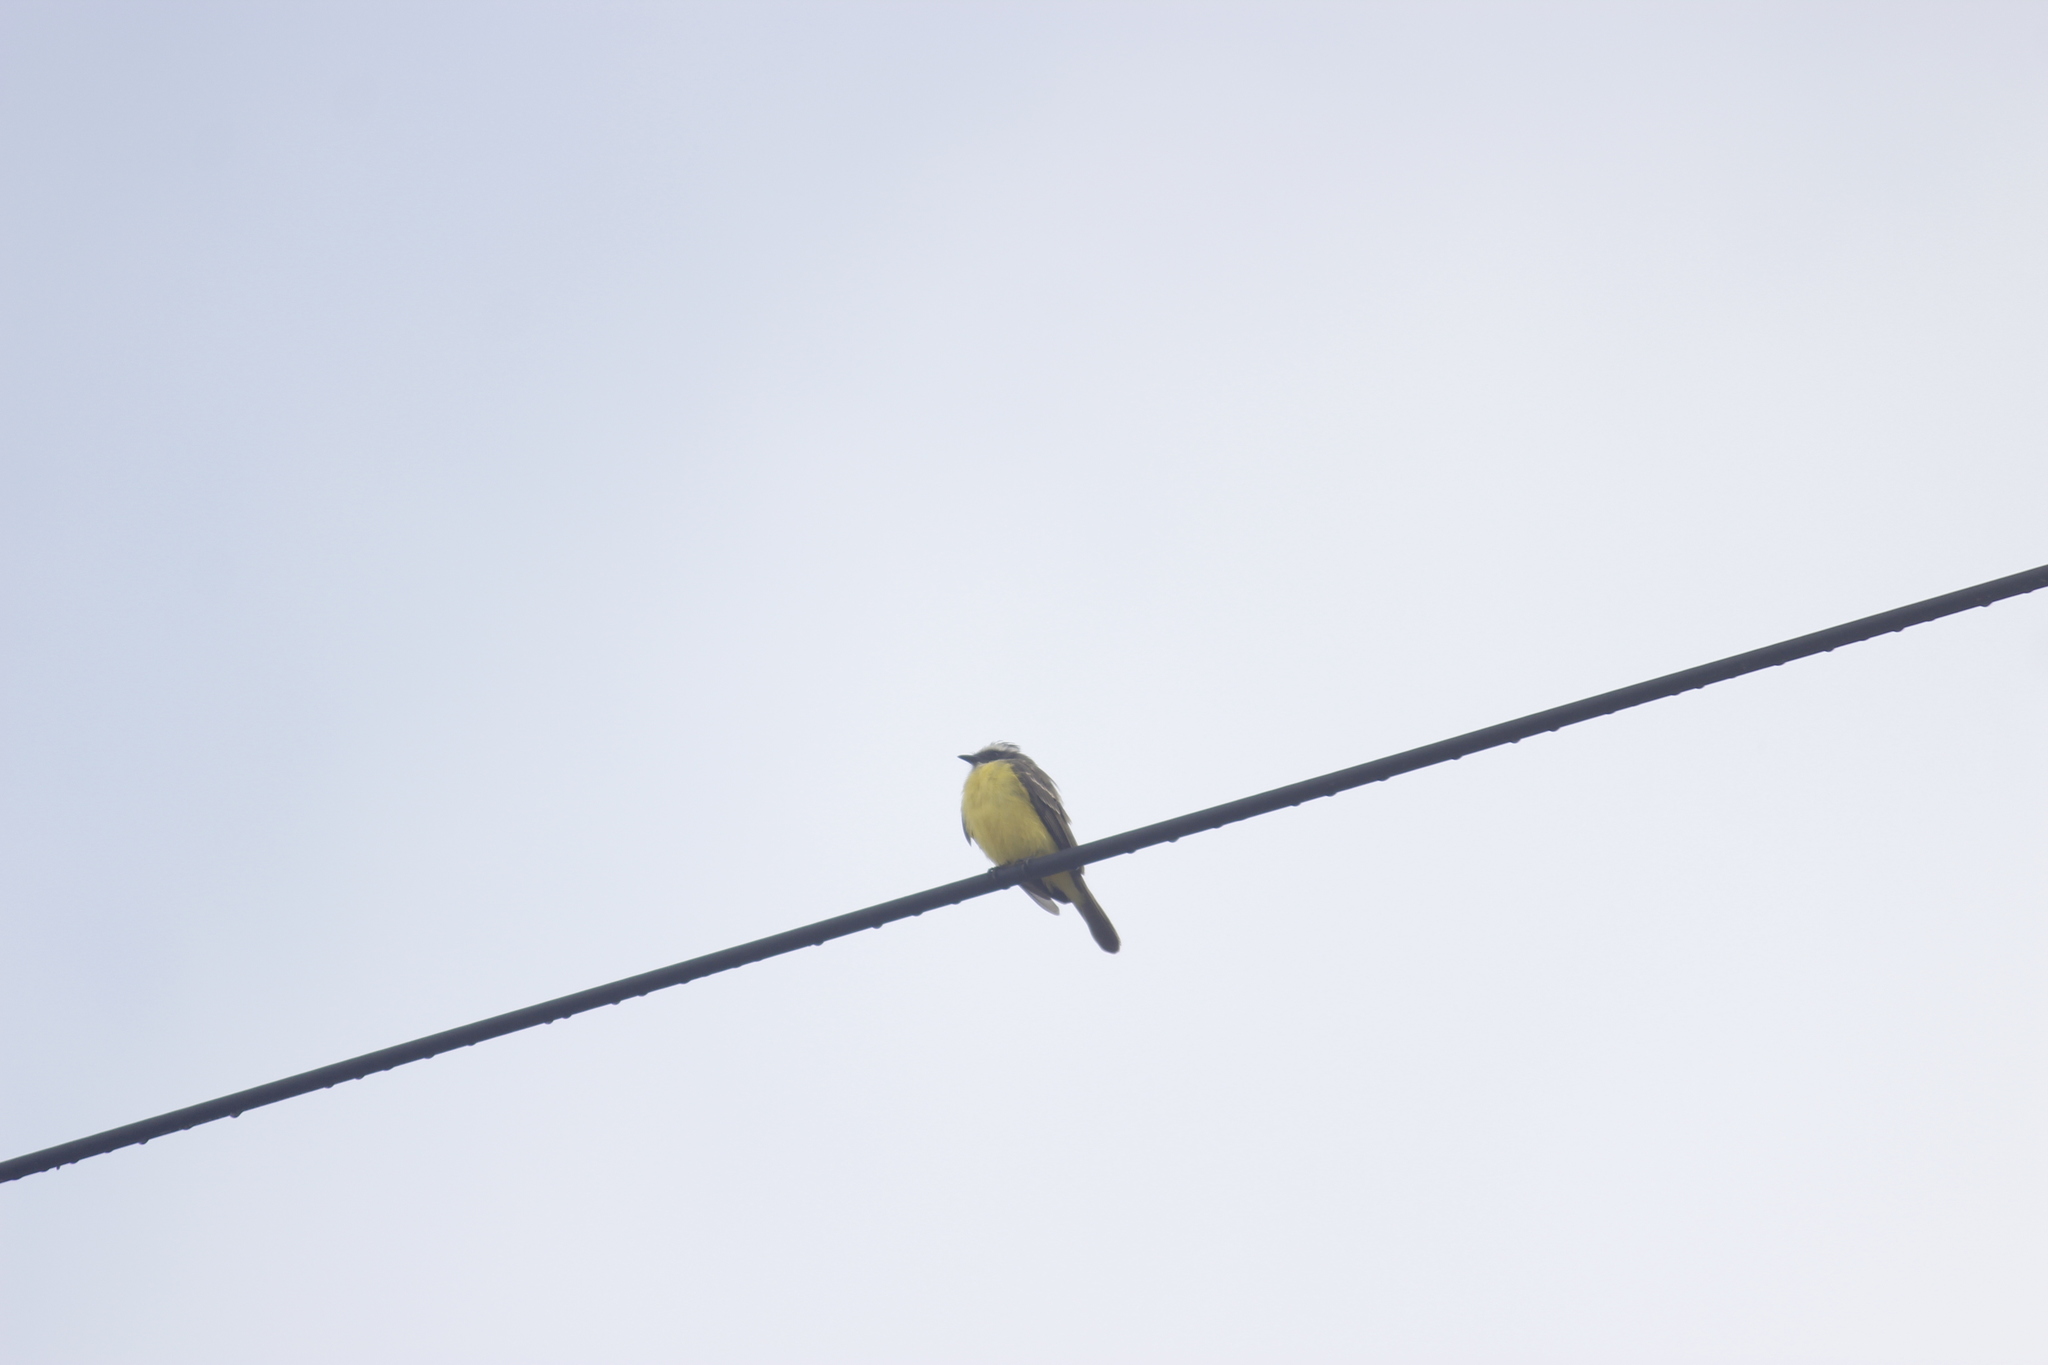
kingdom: Animalia
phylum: Chordata
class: Aves
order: Passeriformes
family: Tyrannidae
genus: Myiozetetes
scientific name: Myiozetetes similis
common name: Social flycatcher
